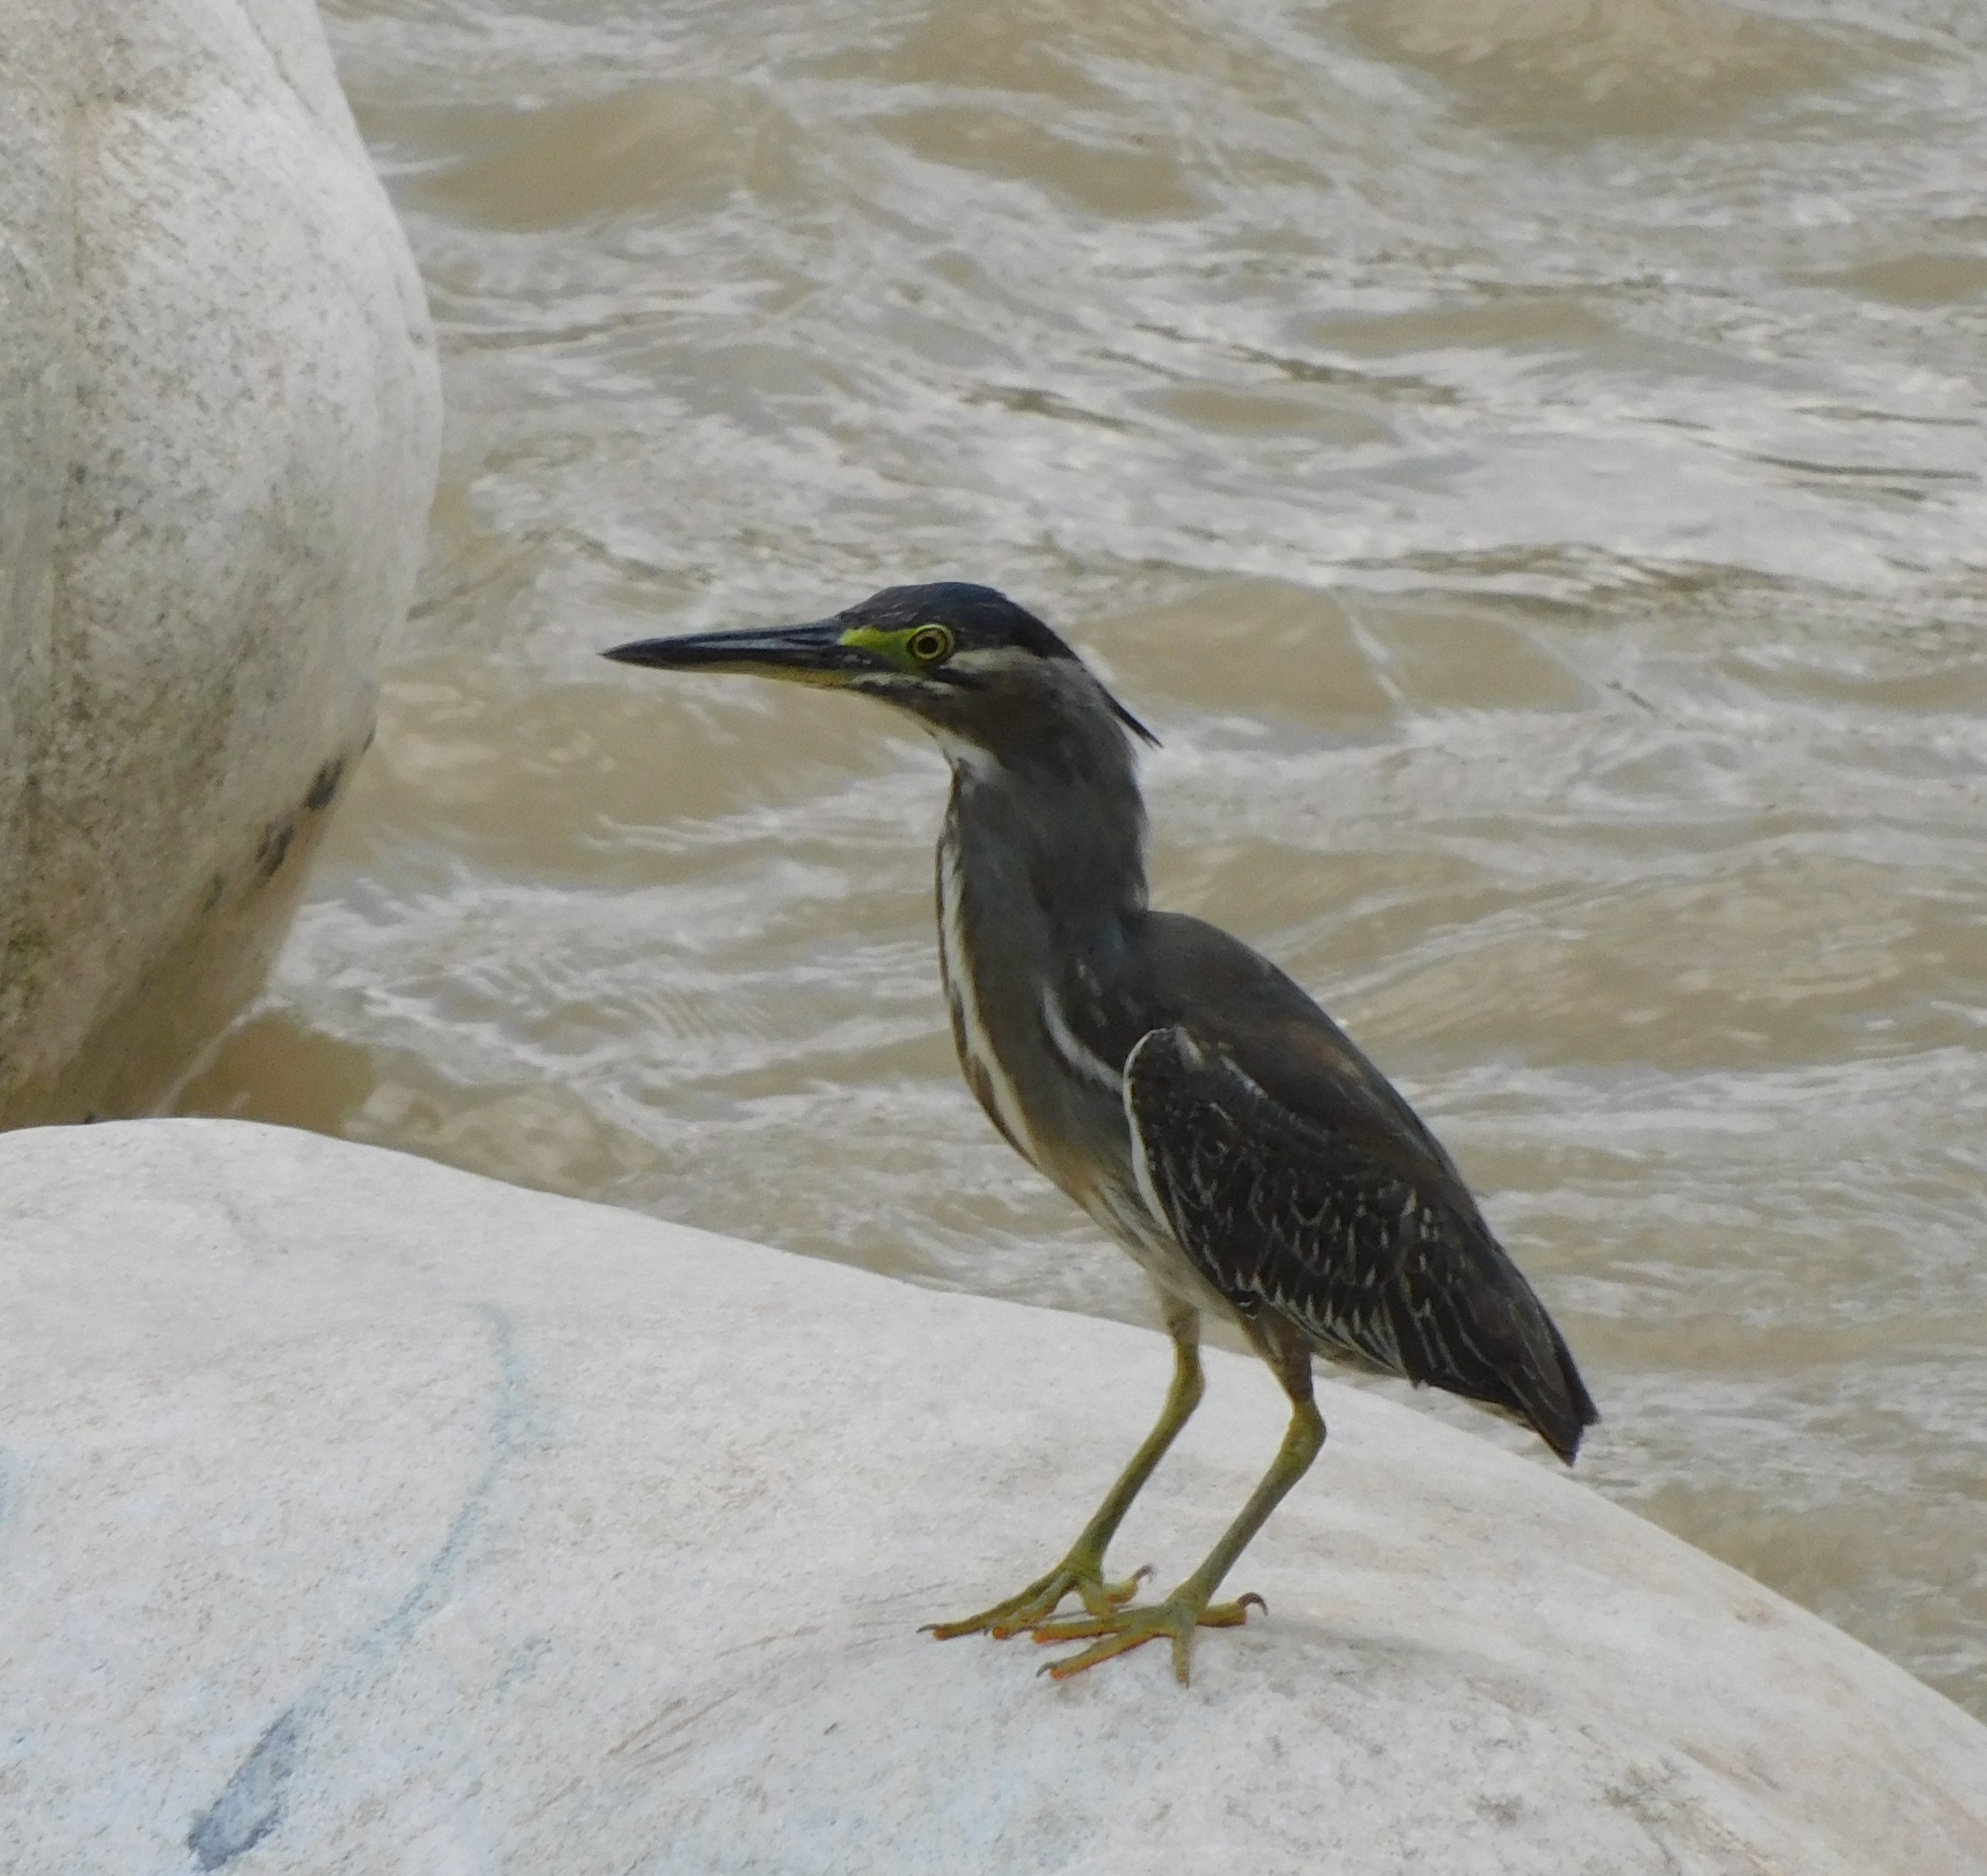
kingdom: Animalia
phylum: Chordata
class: Aves
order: Pelecaniformes
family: Ardeidae
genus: Butorides
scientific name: Butorides striata
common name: Striated heron
